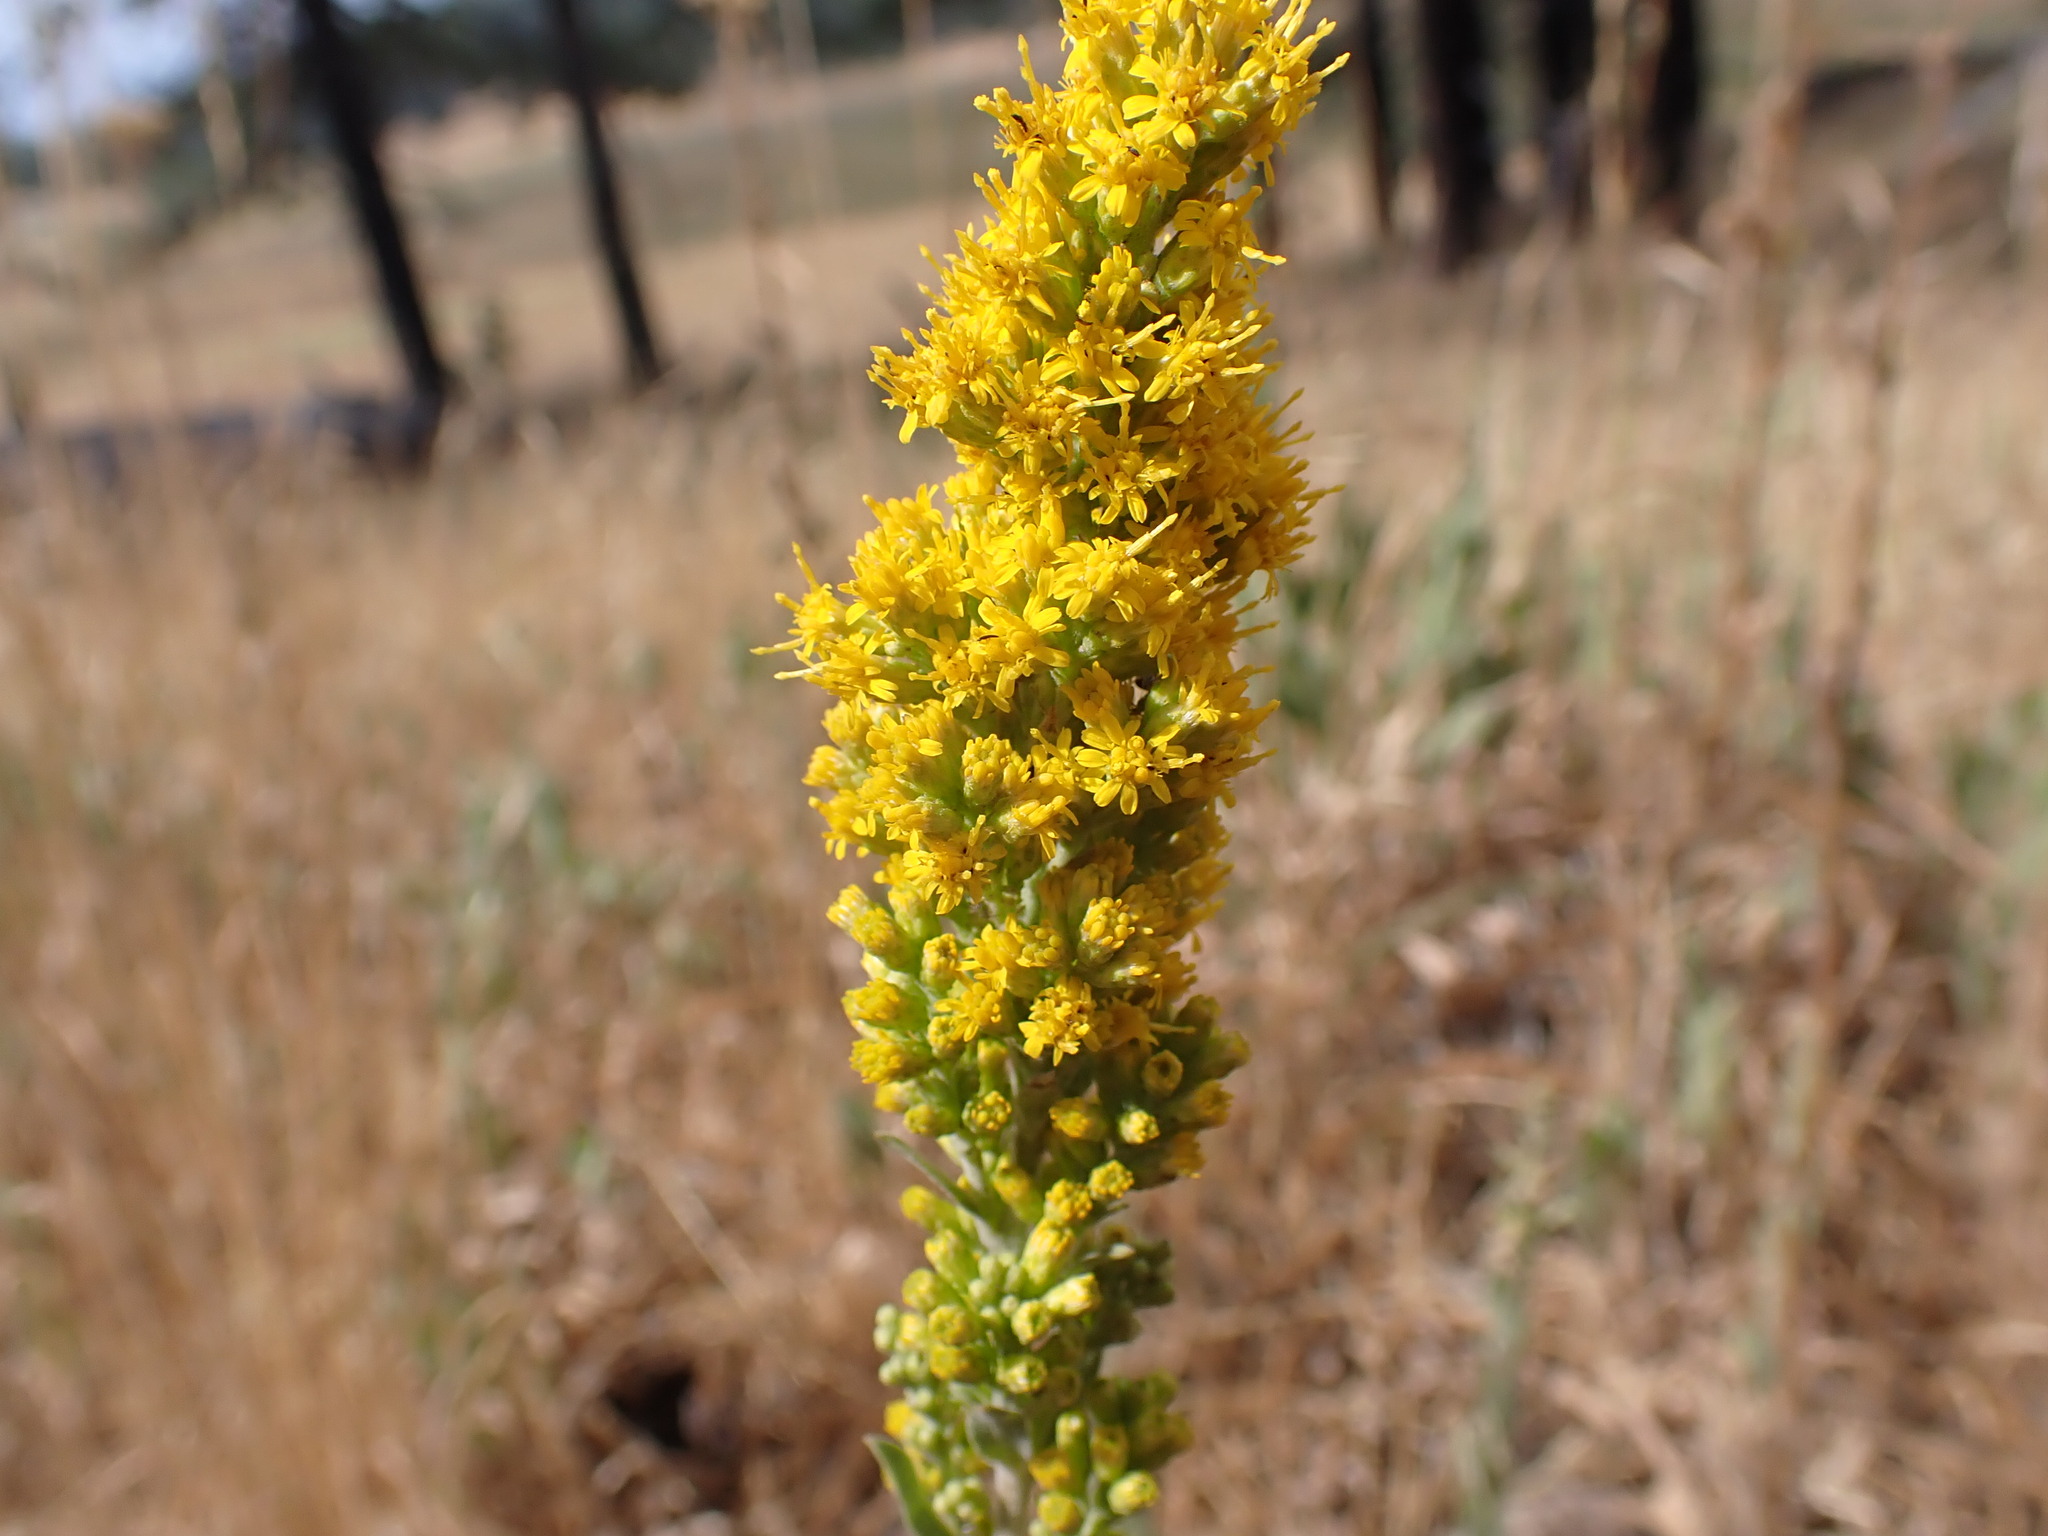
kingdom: Plantae
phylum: Tracheophyta
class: Magnoliopsida
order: Asterales
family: Asteraceae
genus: Solidago
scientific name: Solidago velutina
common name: Three-nerve goldenrod
